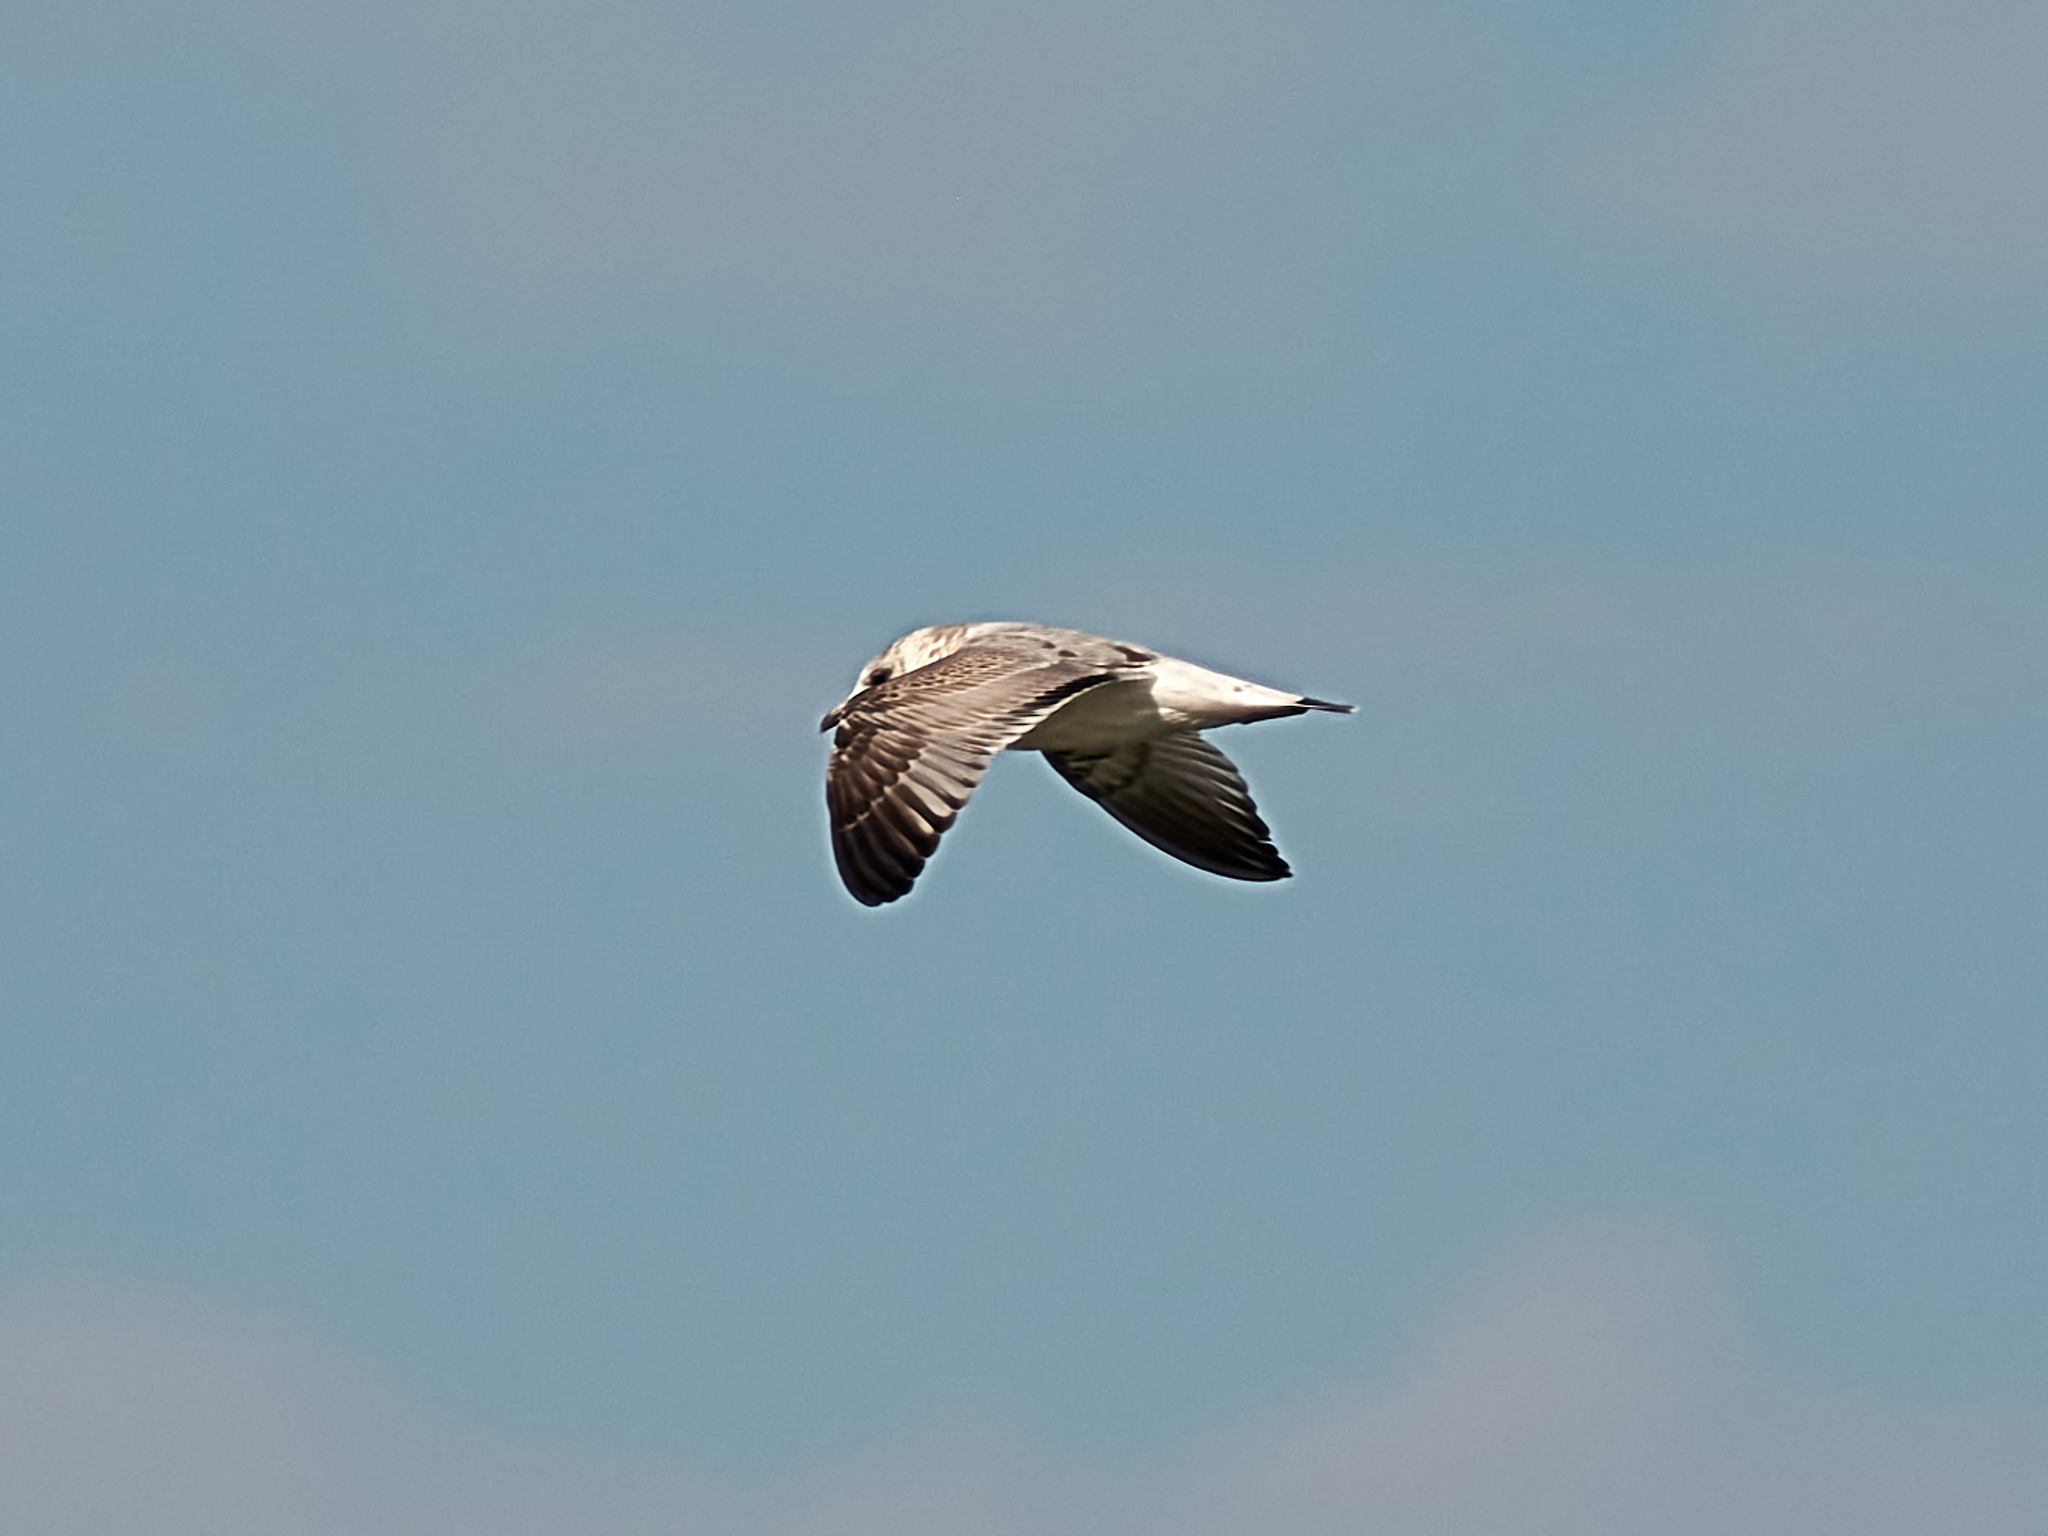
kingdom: Animalia
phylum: Chordata
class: Aves
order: Charadriiformes
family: Laridae
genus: Larus
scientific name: Larus canus
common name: Mew gull
